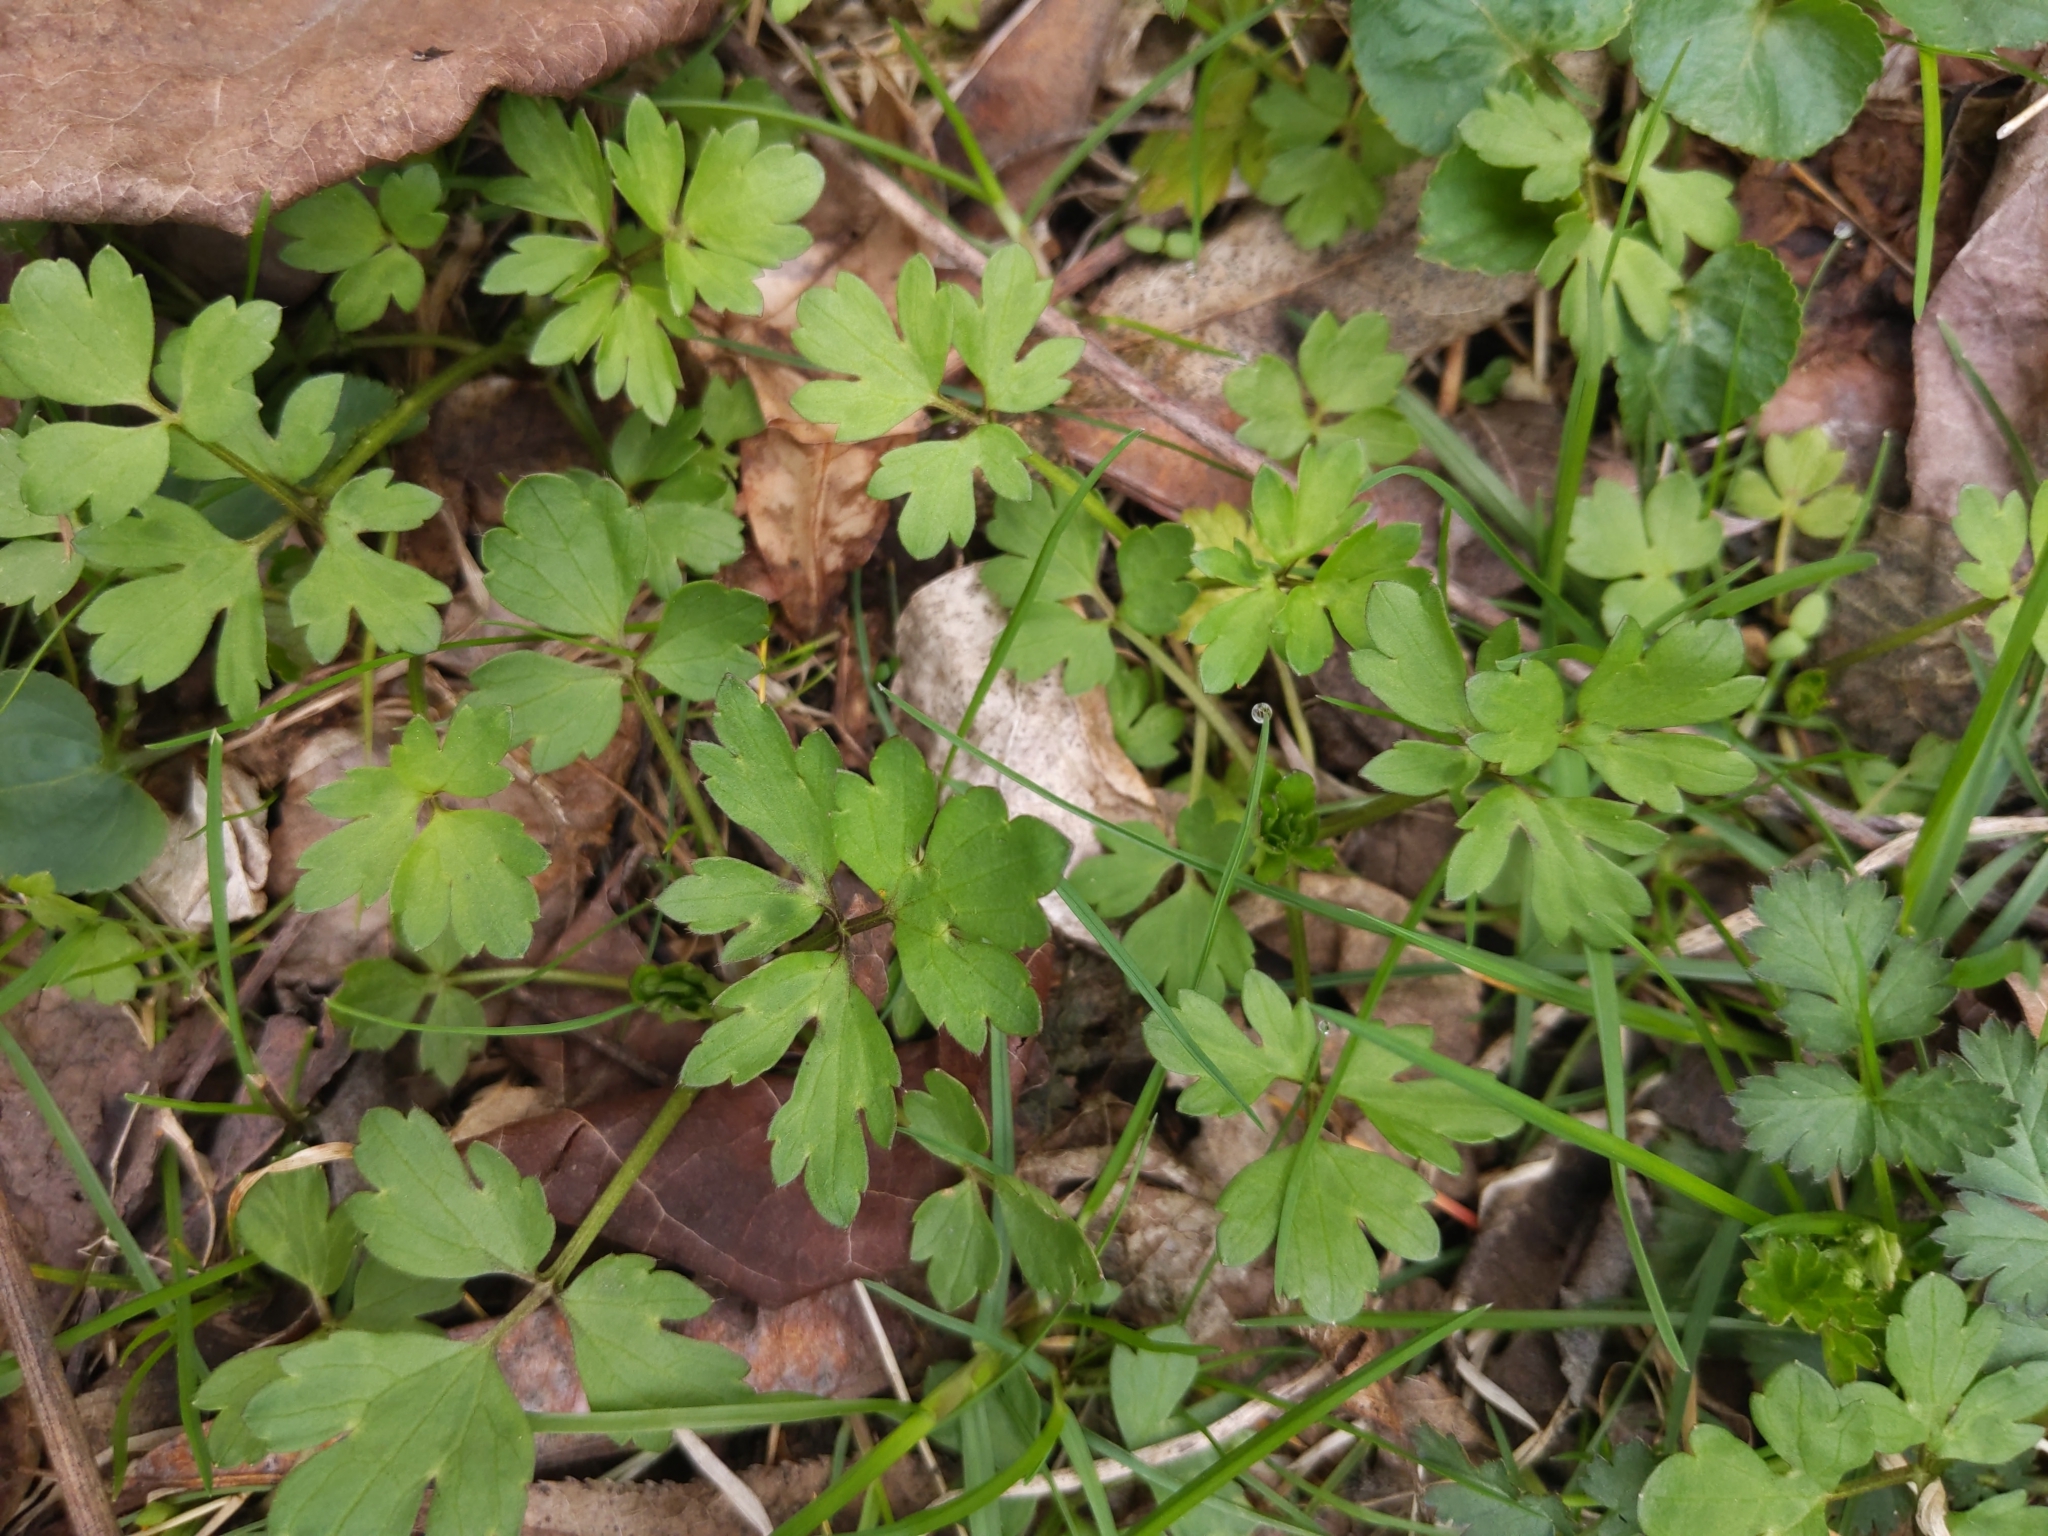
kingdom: Plantae
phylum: Tracheophyta
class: Magnoliopsida
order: Ranunculales
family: Ranunculaceae
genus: Ranunculus
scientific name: Ranunculus repens
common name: Creeping buttercup
